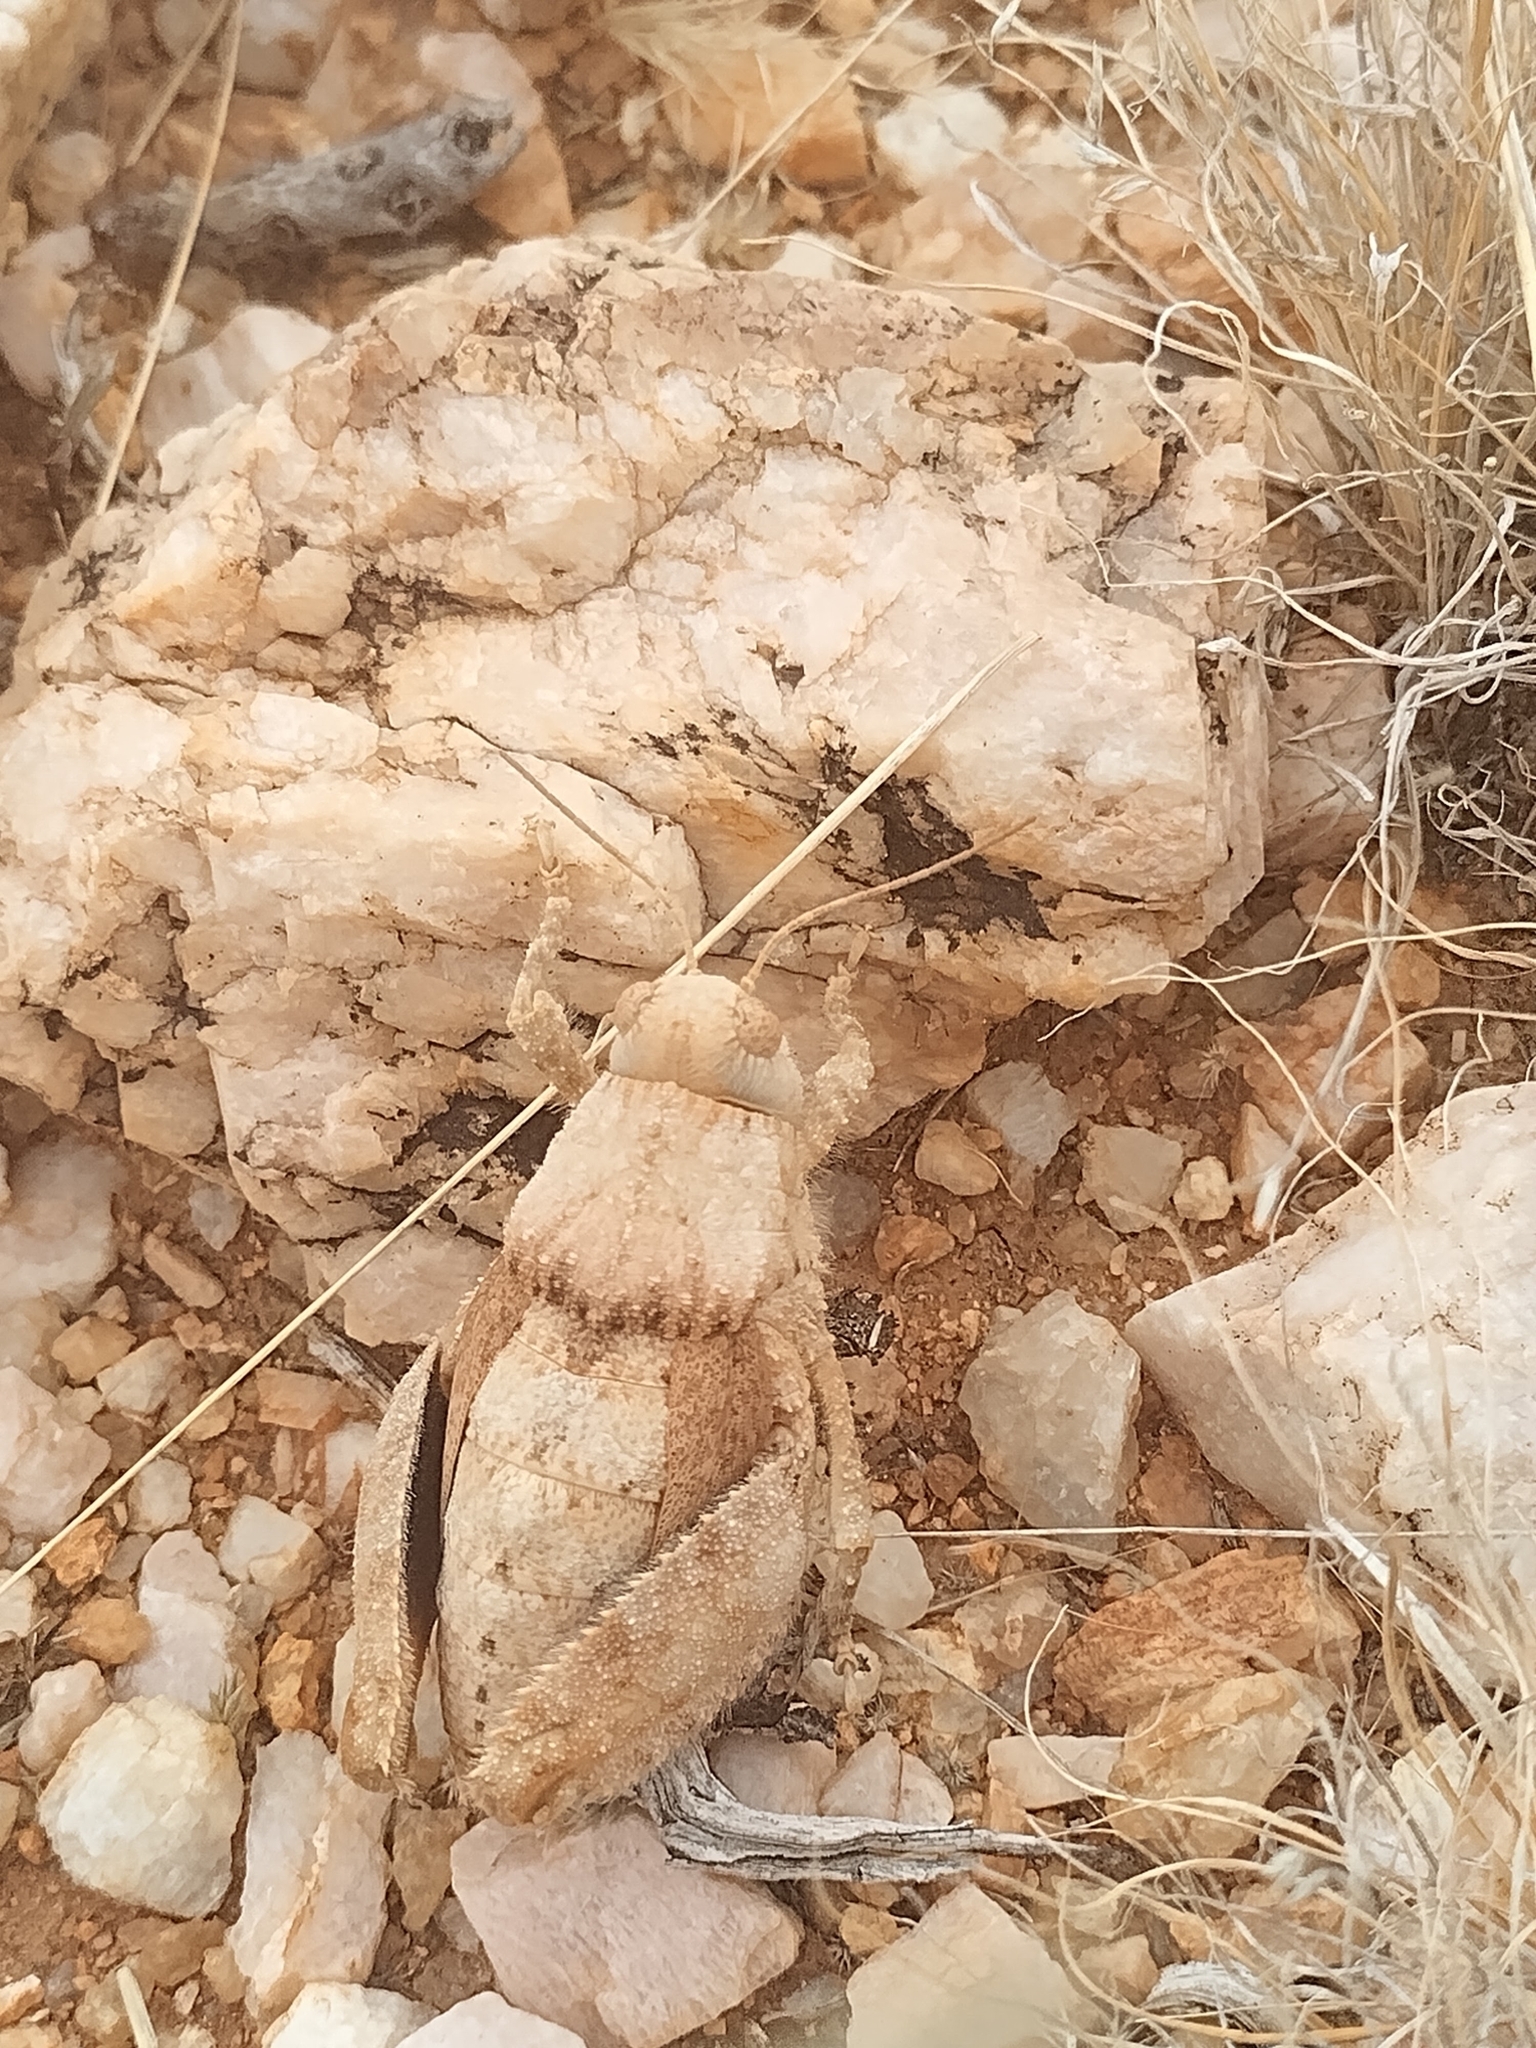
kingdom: Animalia
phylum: Arthropoda
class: Insecta
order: Orthoptera
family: Pamphagidae
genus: Trachypetrella
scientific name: Trachypetrella anderssonii
